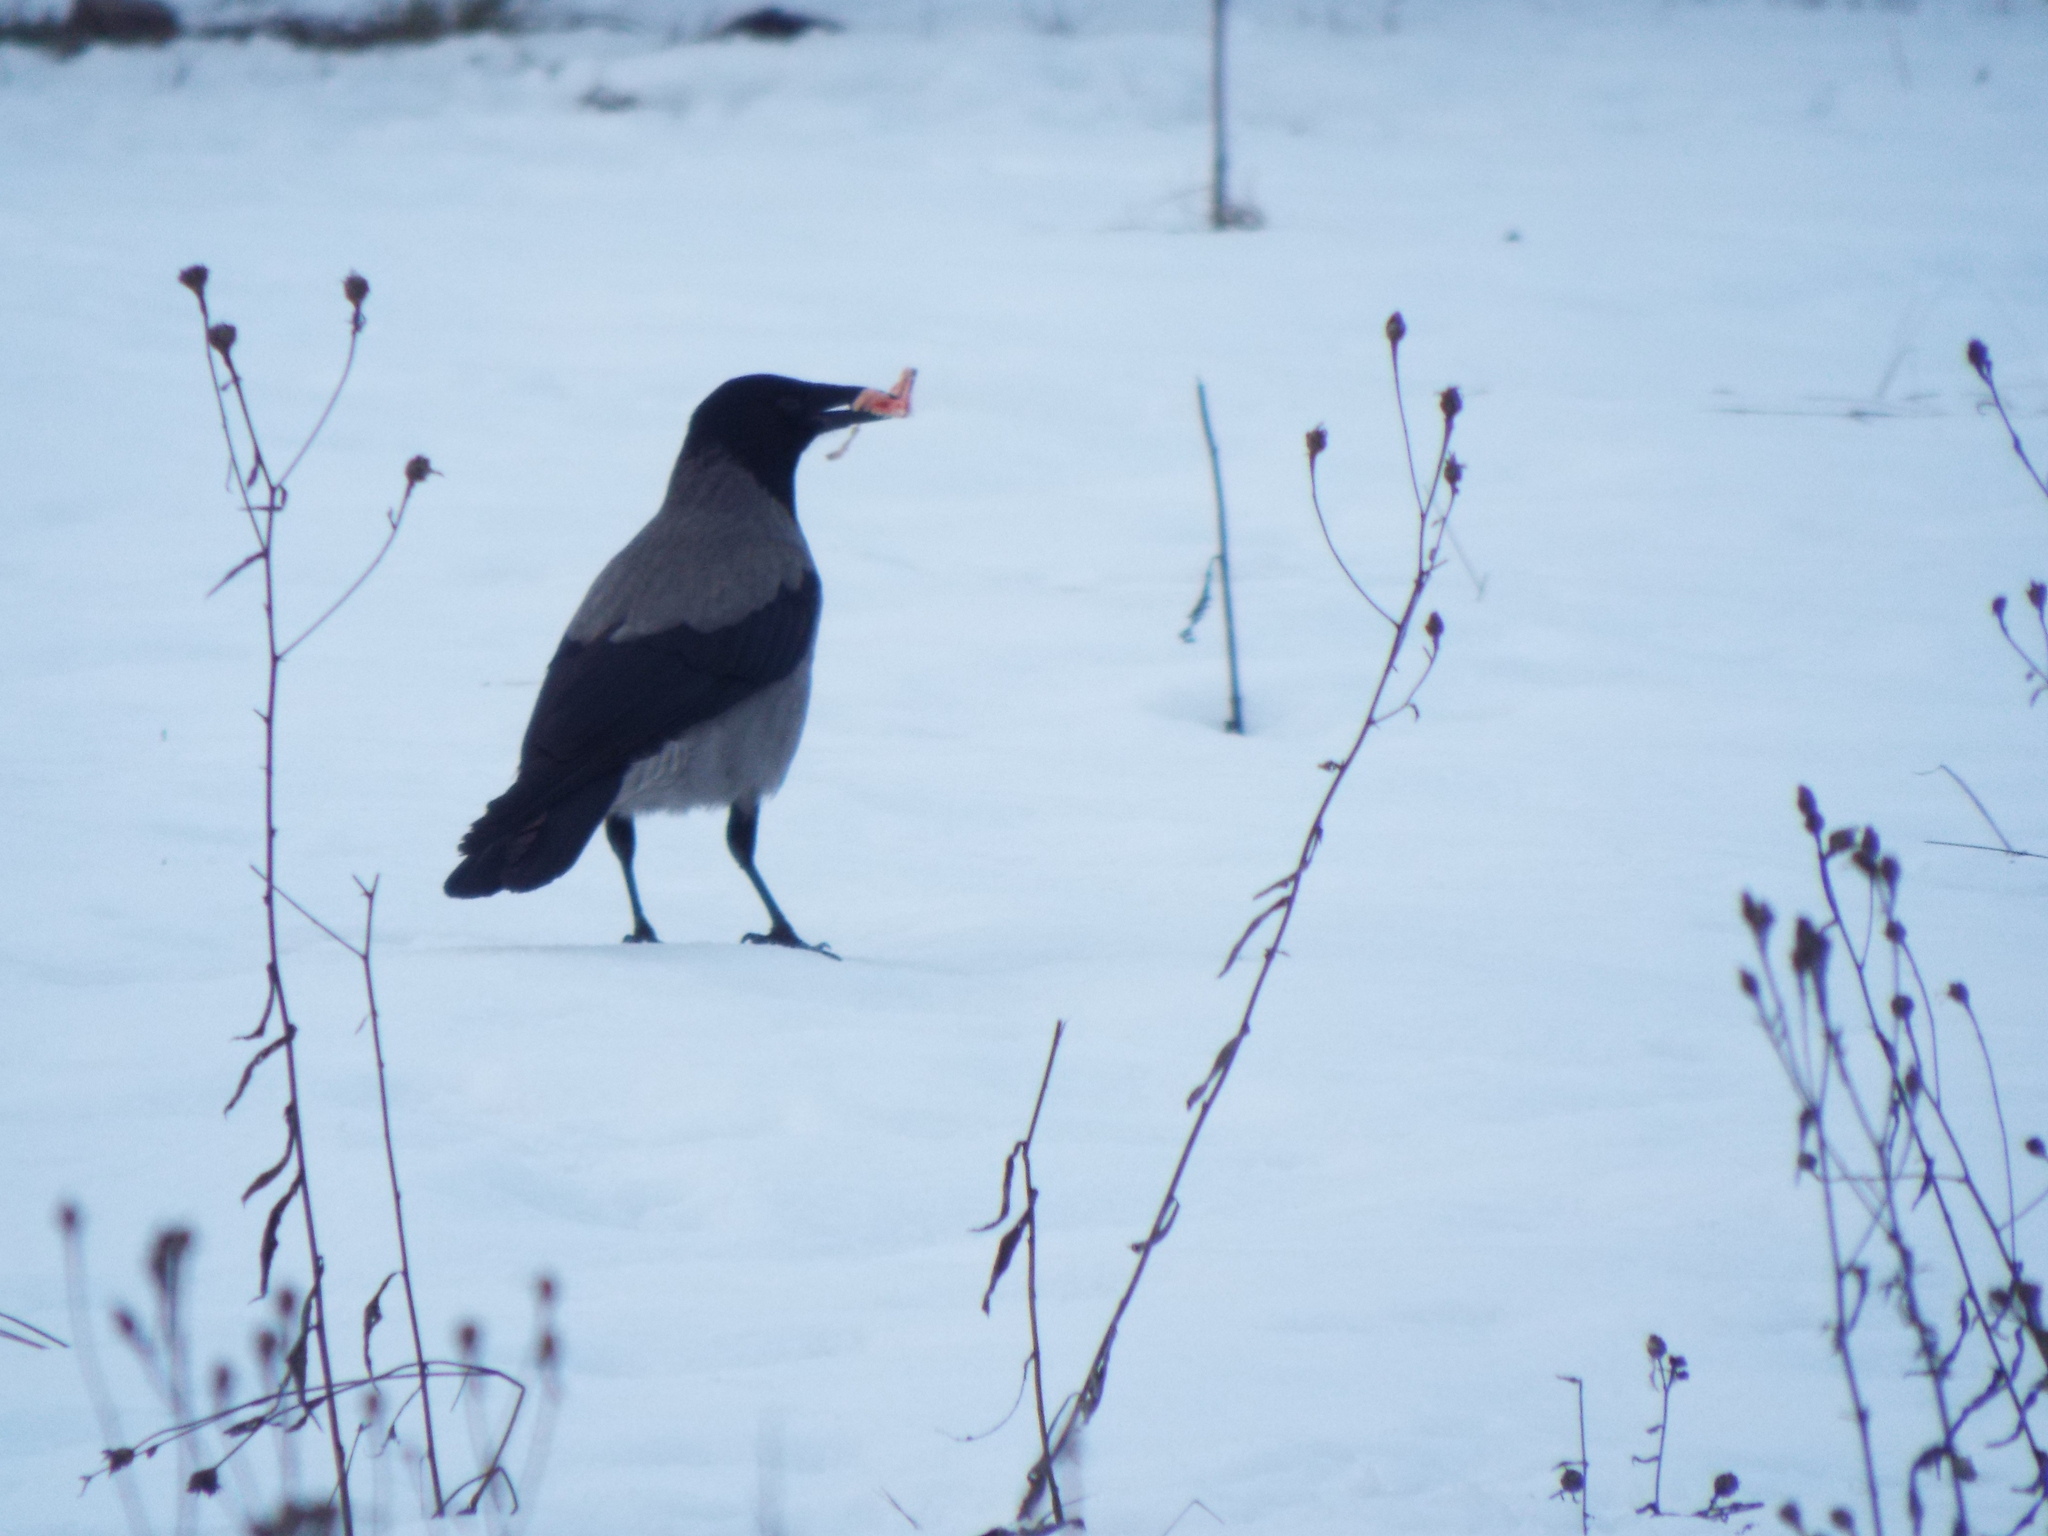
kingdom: Animalia
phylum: Chordata
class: Aves
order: Passeriformes
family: Corvidae
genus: Corvus
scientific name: Corvus cornix
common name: Hooded crow
